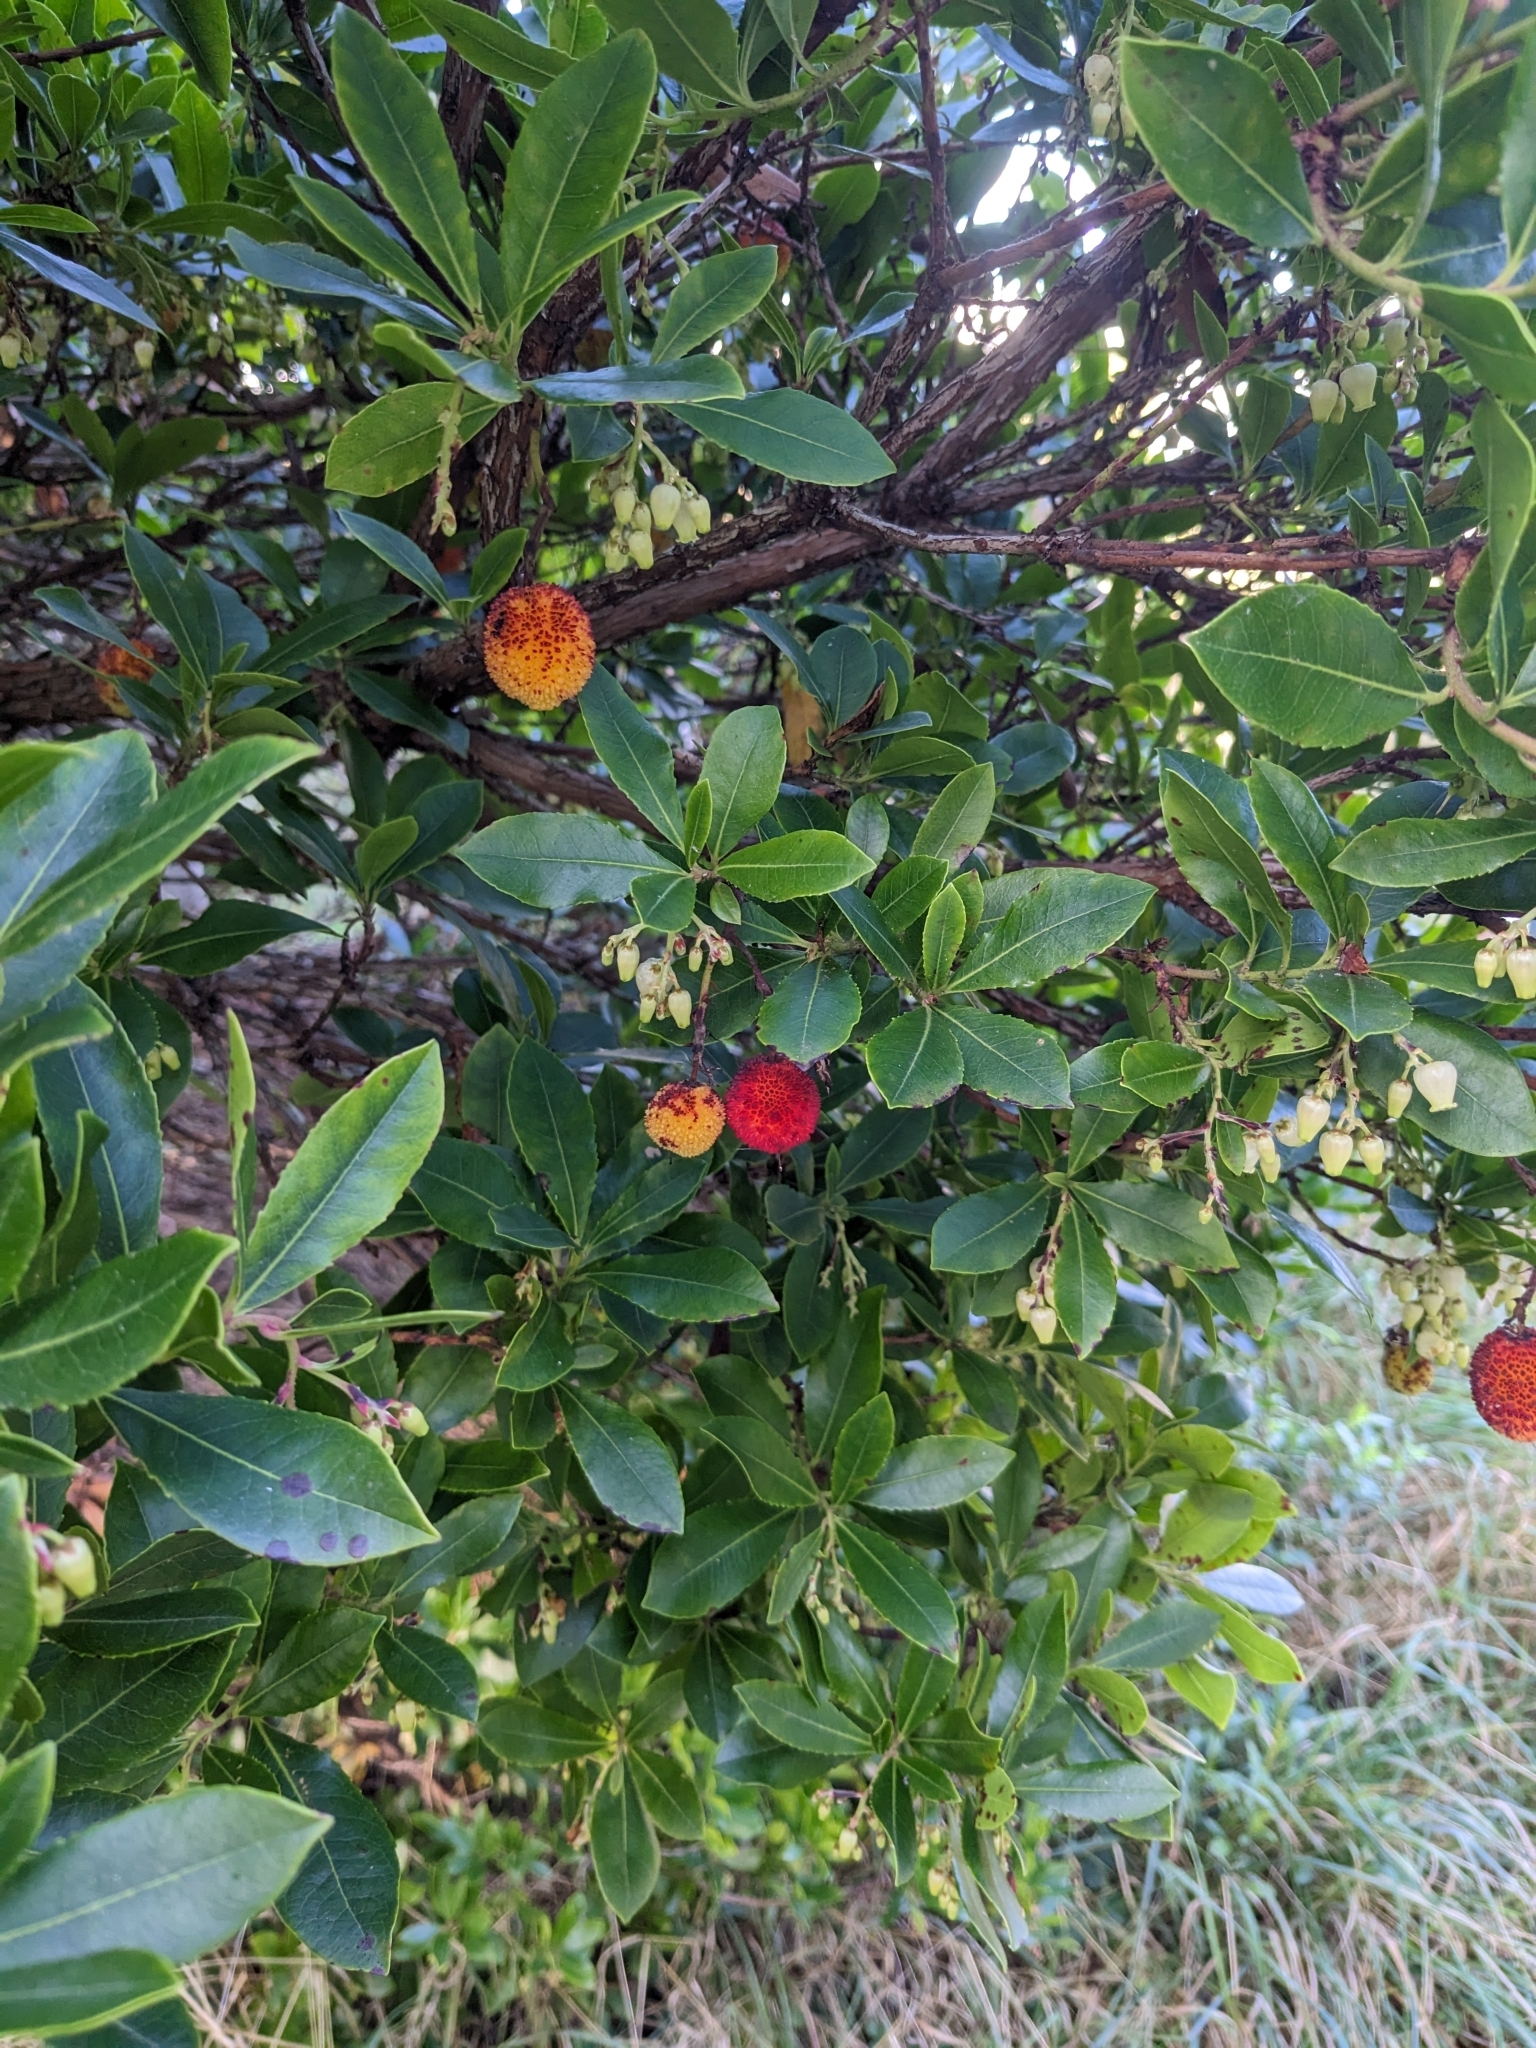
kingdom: Plantae
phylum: Tracheophyta
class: Magnoliopsida
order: Ericales
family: Ericaceae
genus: Arbutus
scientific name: Arbutus unedo
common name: Strawberry-tree
